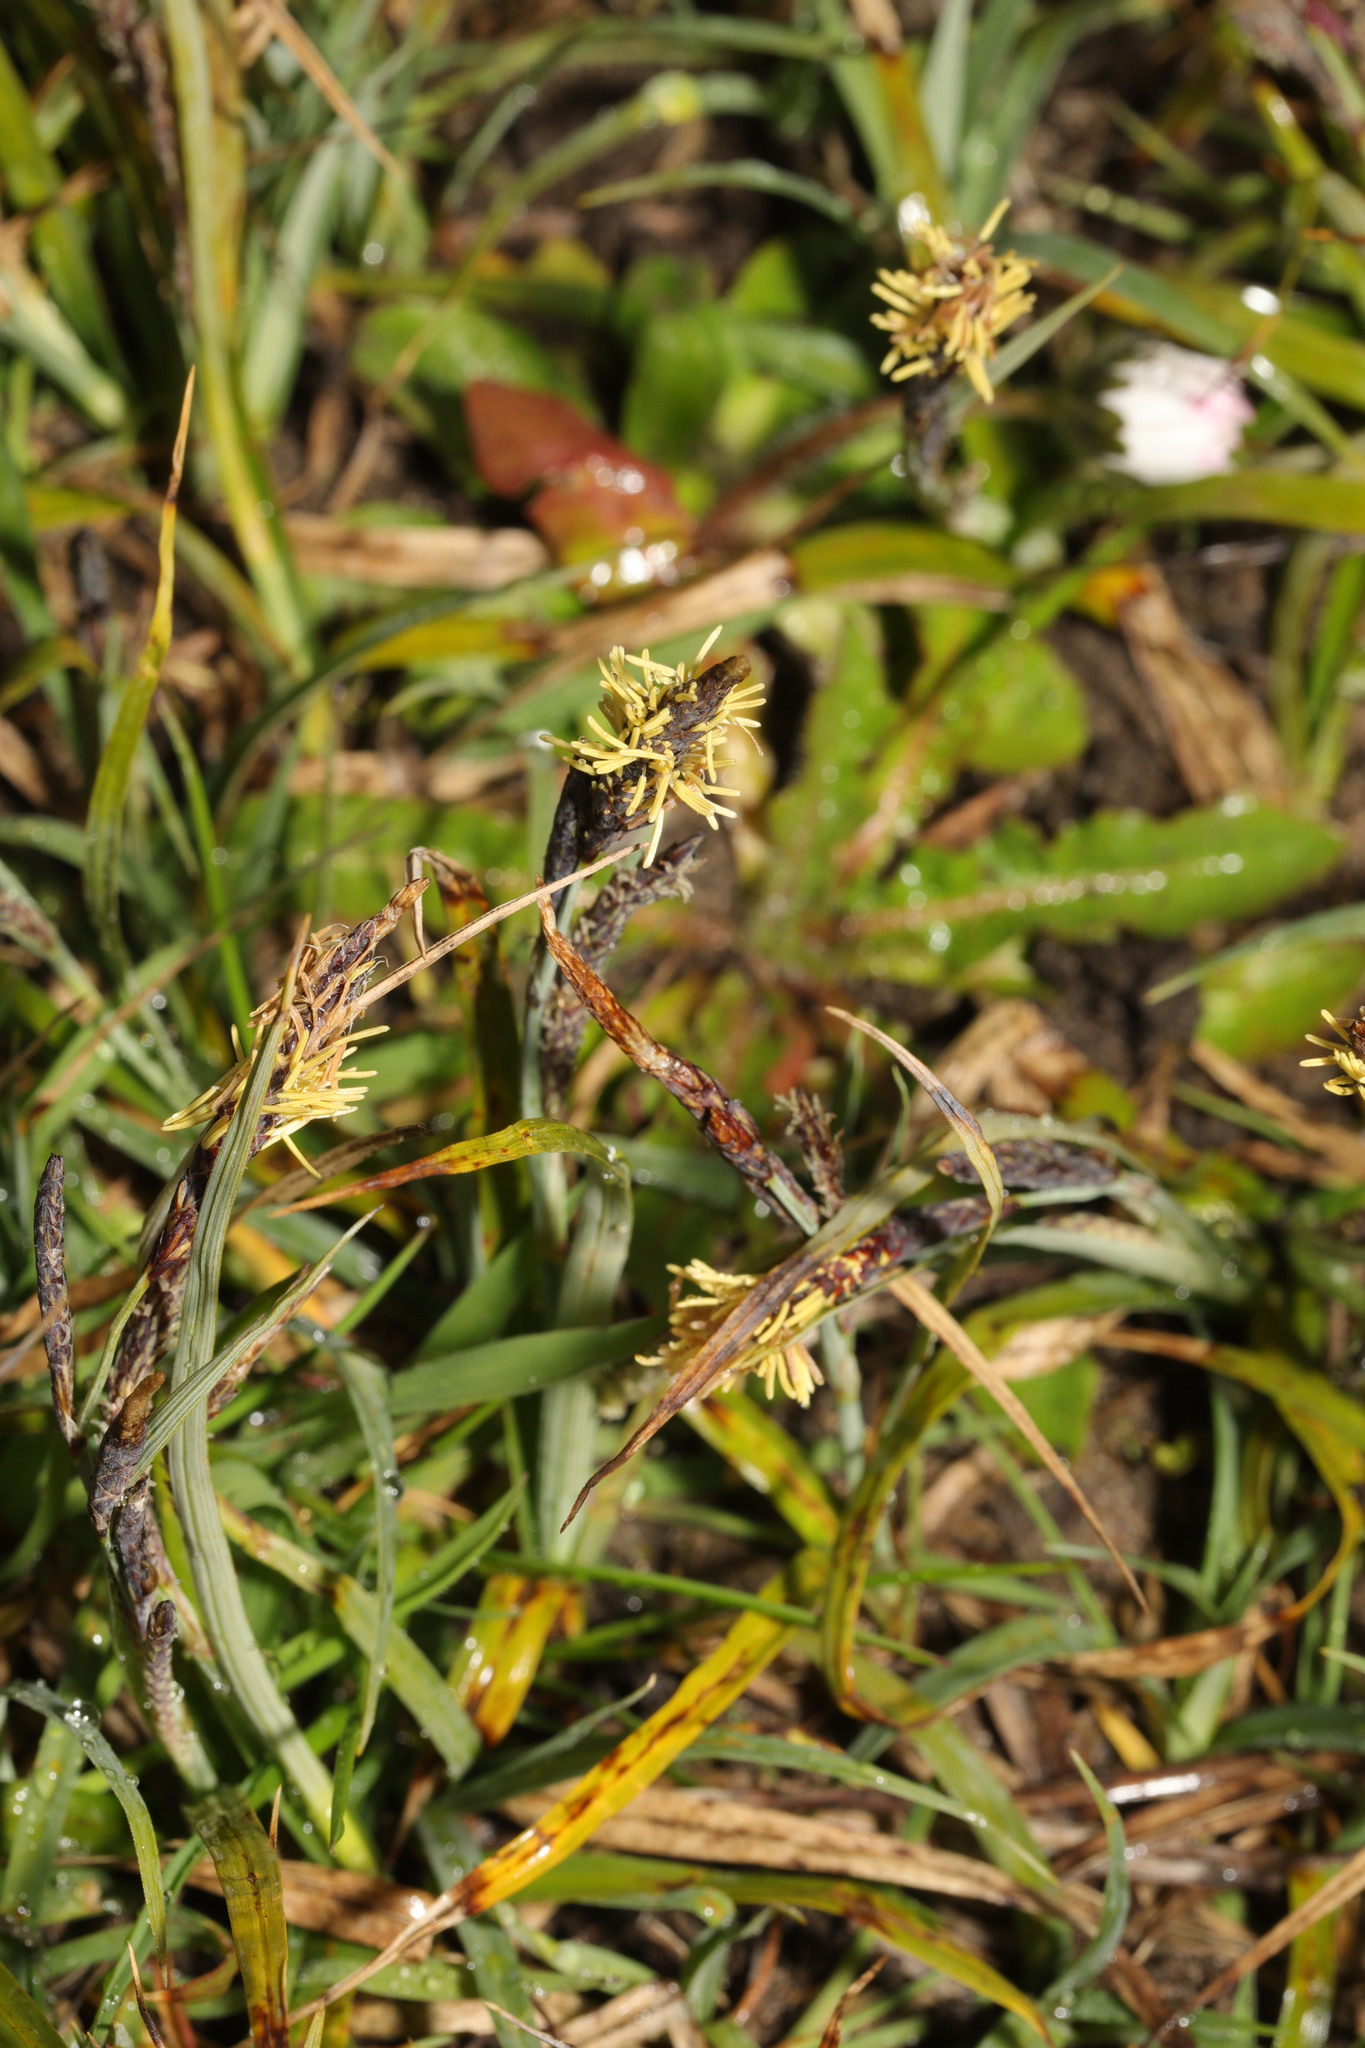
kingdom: Plantae
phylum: Tracheophyta
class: Liliopsida
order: Poales
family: Cyperaceae
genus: Carex
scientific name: Carex flacca
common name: Glaucous sedge
